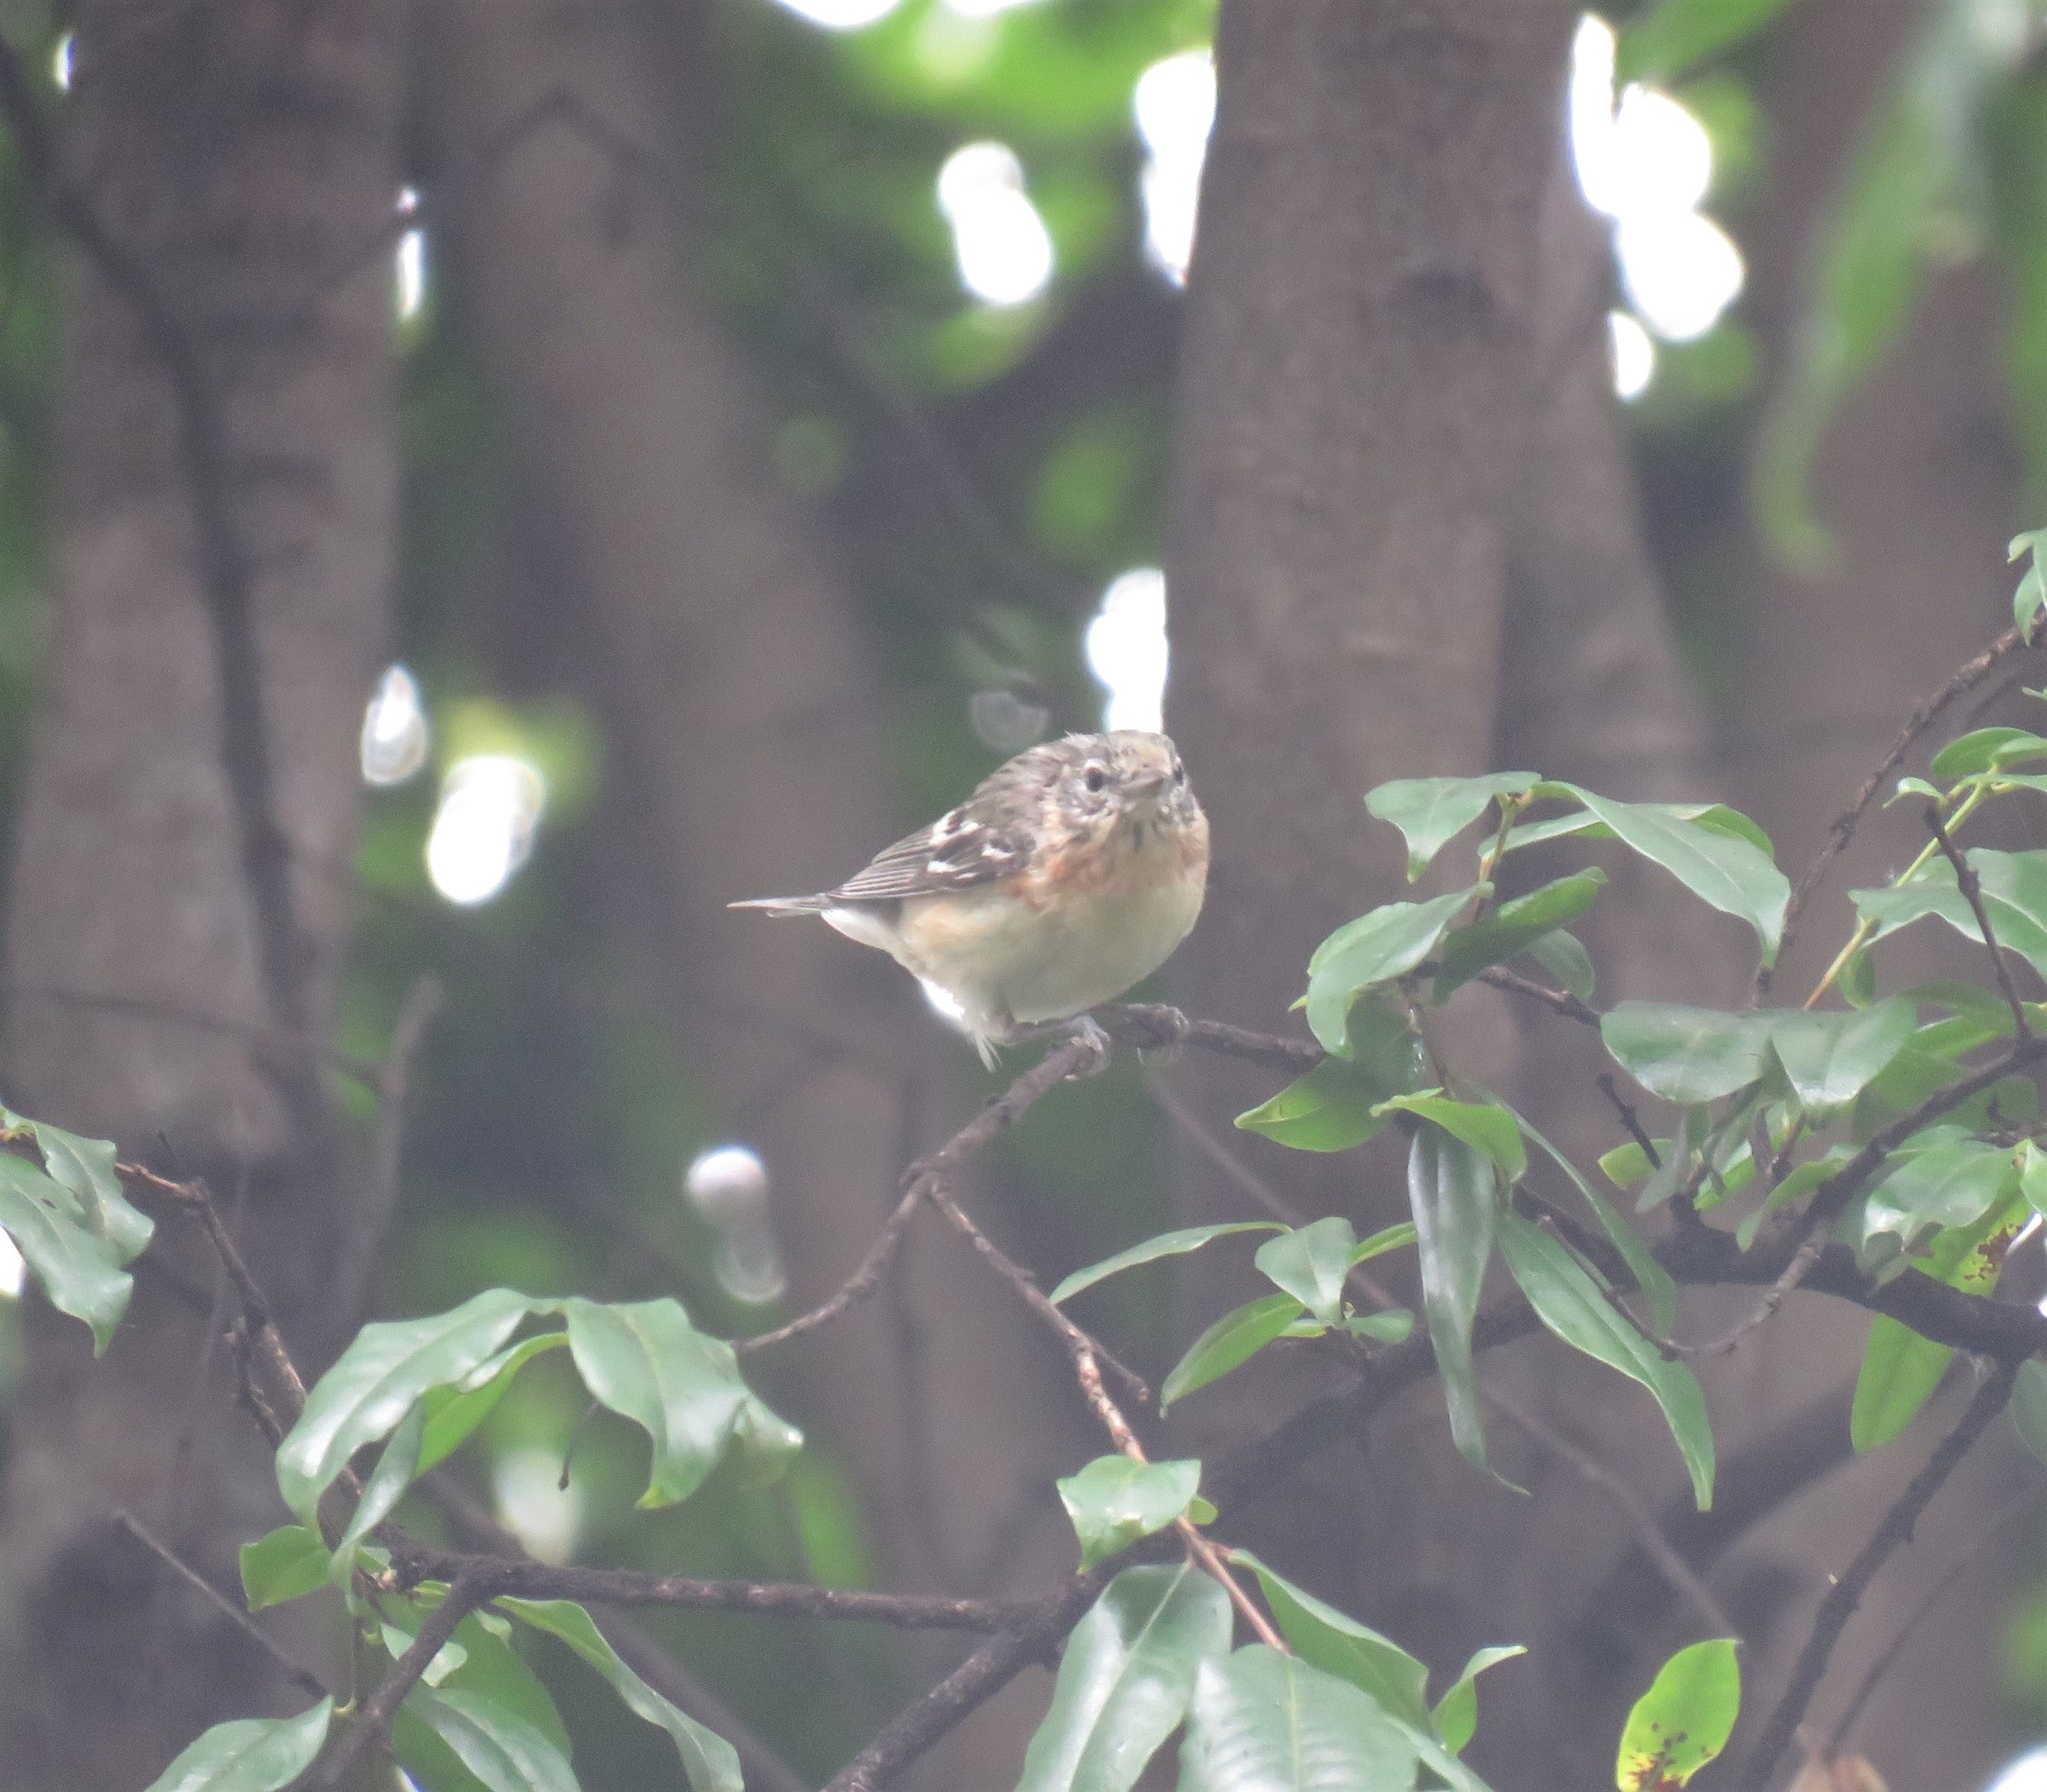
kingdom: Animalia
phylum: Chordata
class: Aves
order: Passeriformes
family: Parulidae
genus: Setophaga
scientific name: Setophaga castanea
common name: Bay-breasted warbler
